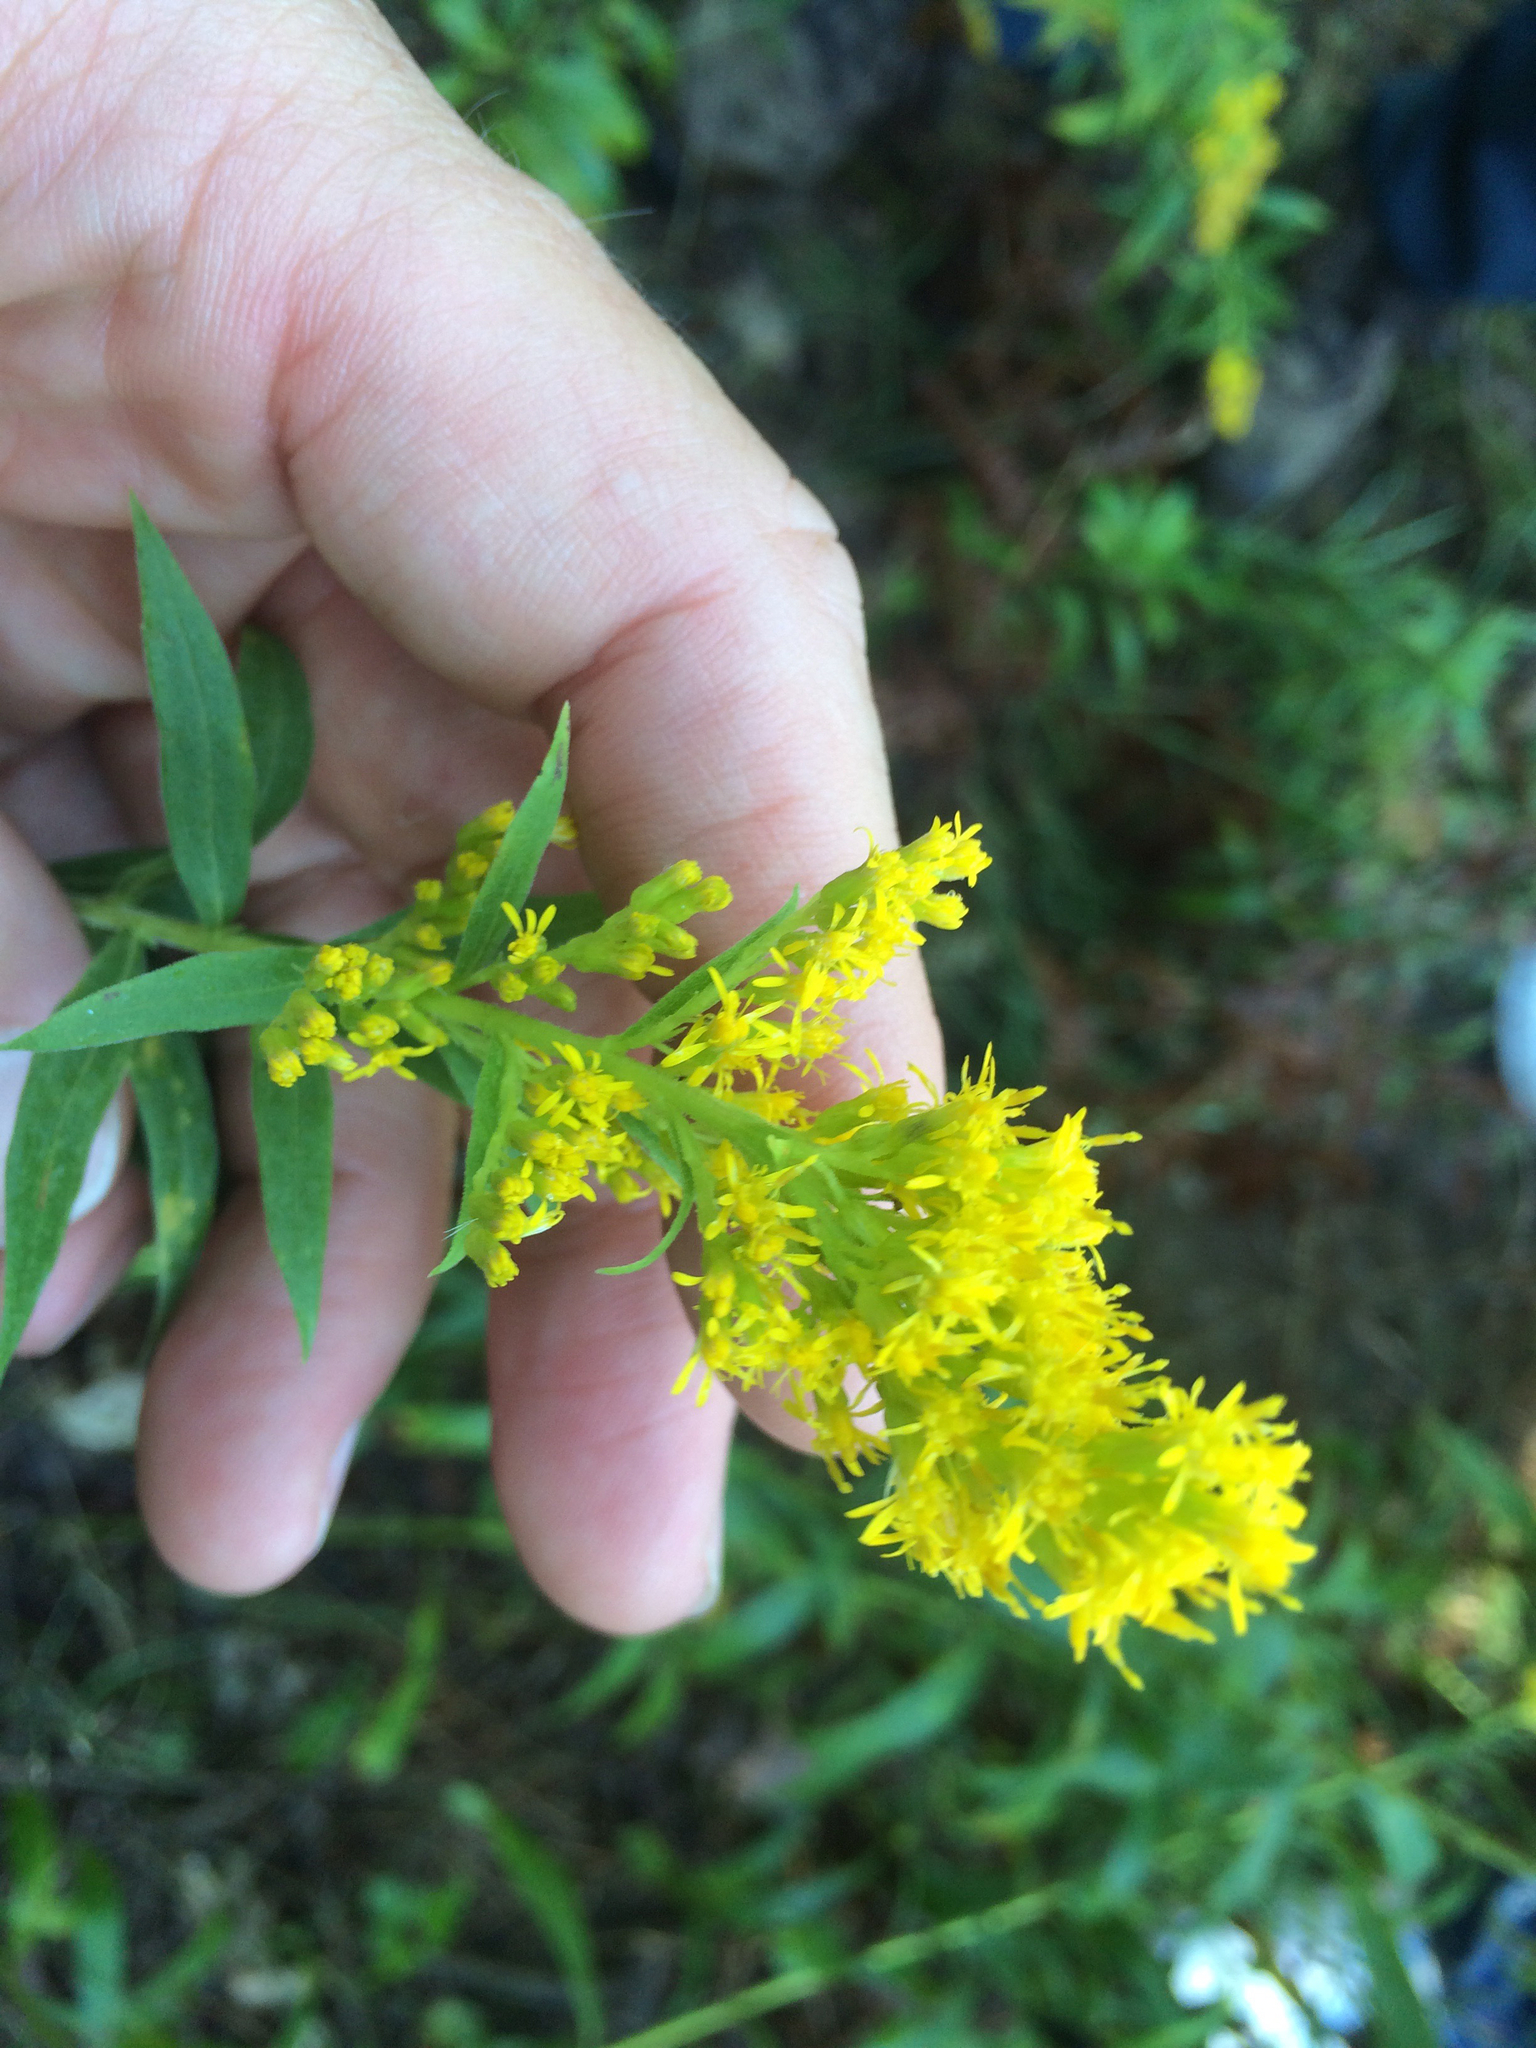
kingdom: Plantae
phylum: Tracheophyta
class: Magnoliopsida
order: Asterales
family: Asteraceae
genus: Solidago
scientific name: Solidago altissima
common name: Late goldenrod
